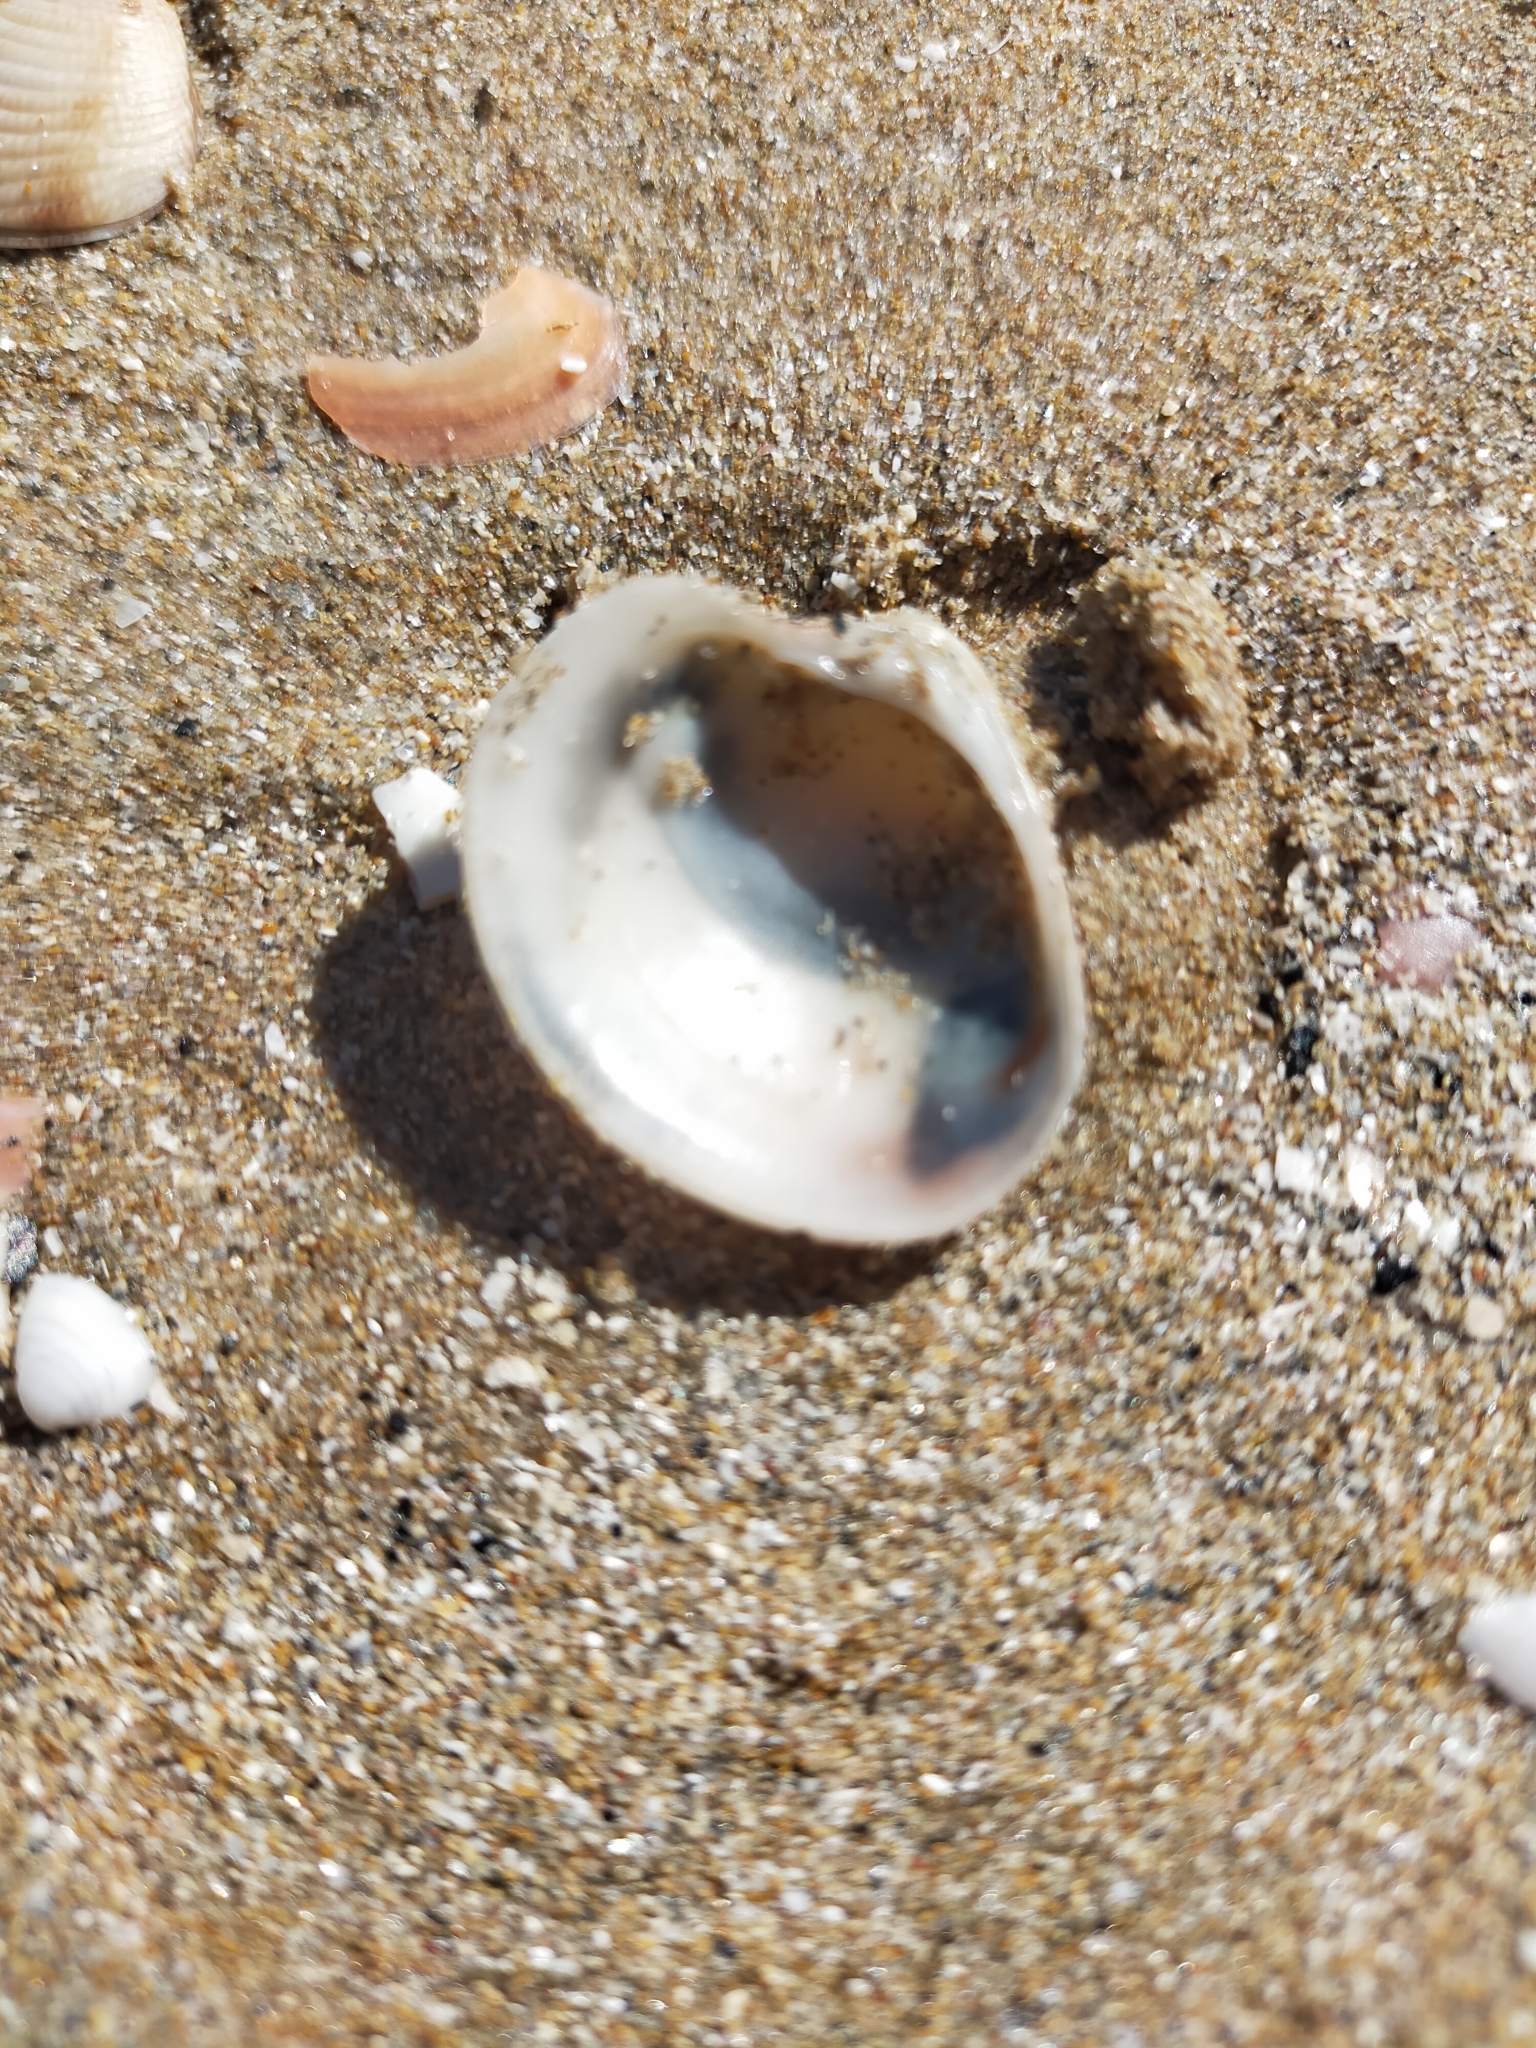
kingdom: Animalia
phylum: Mollusca
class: Bivalvia
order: Venerida
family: Veneridae
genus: Chamelea
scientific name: Chamelea gallina
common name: Chicken venus
